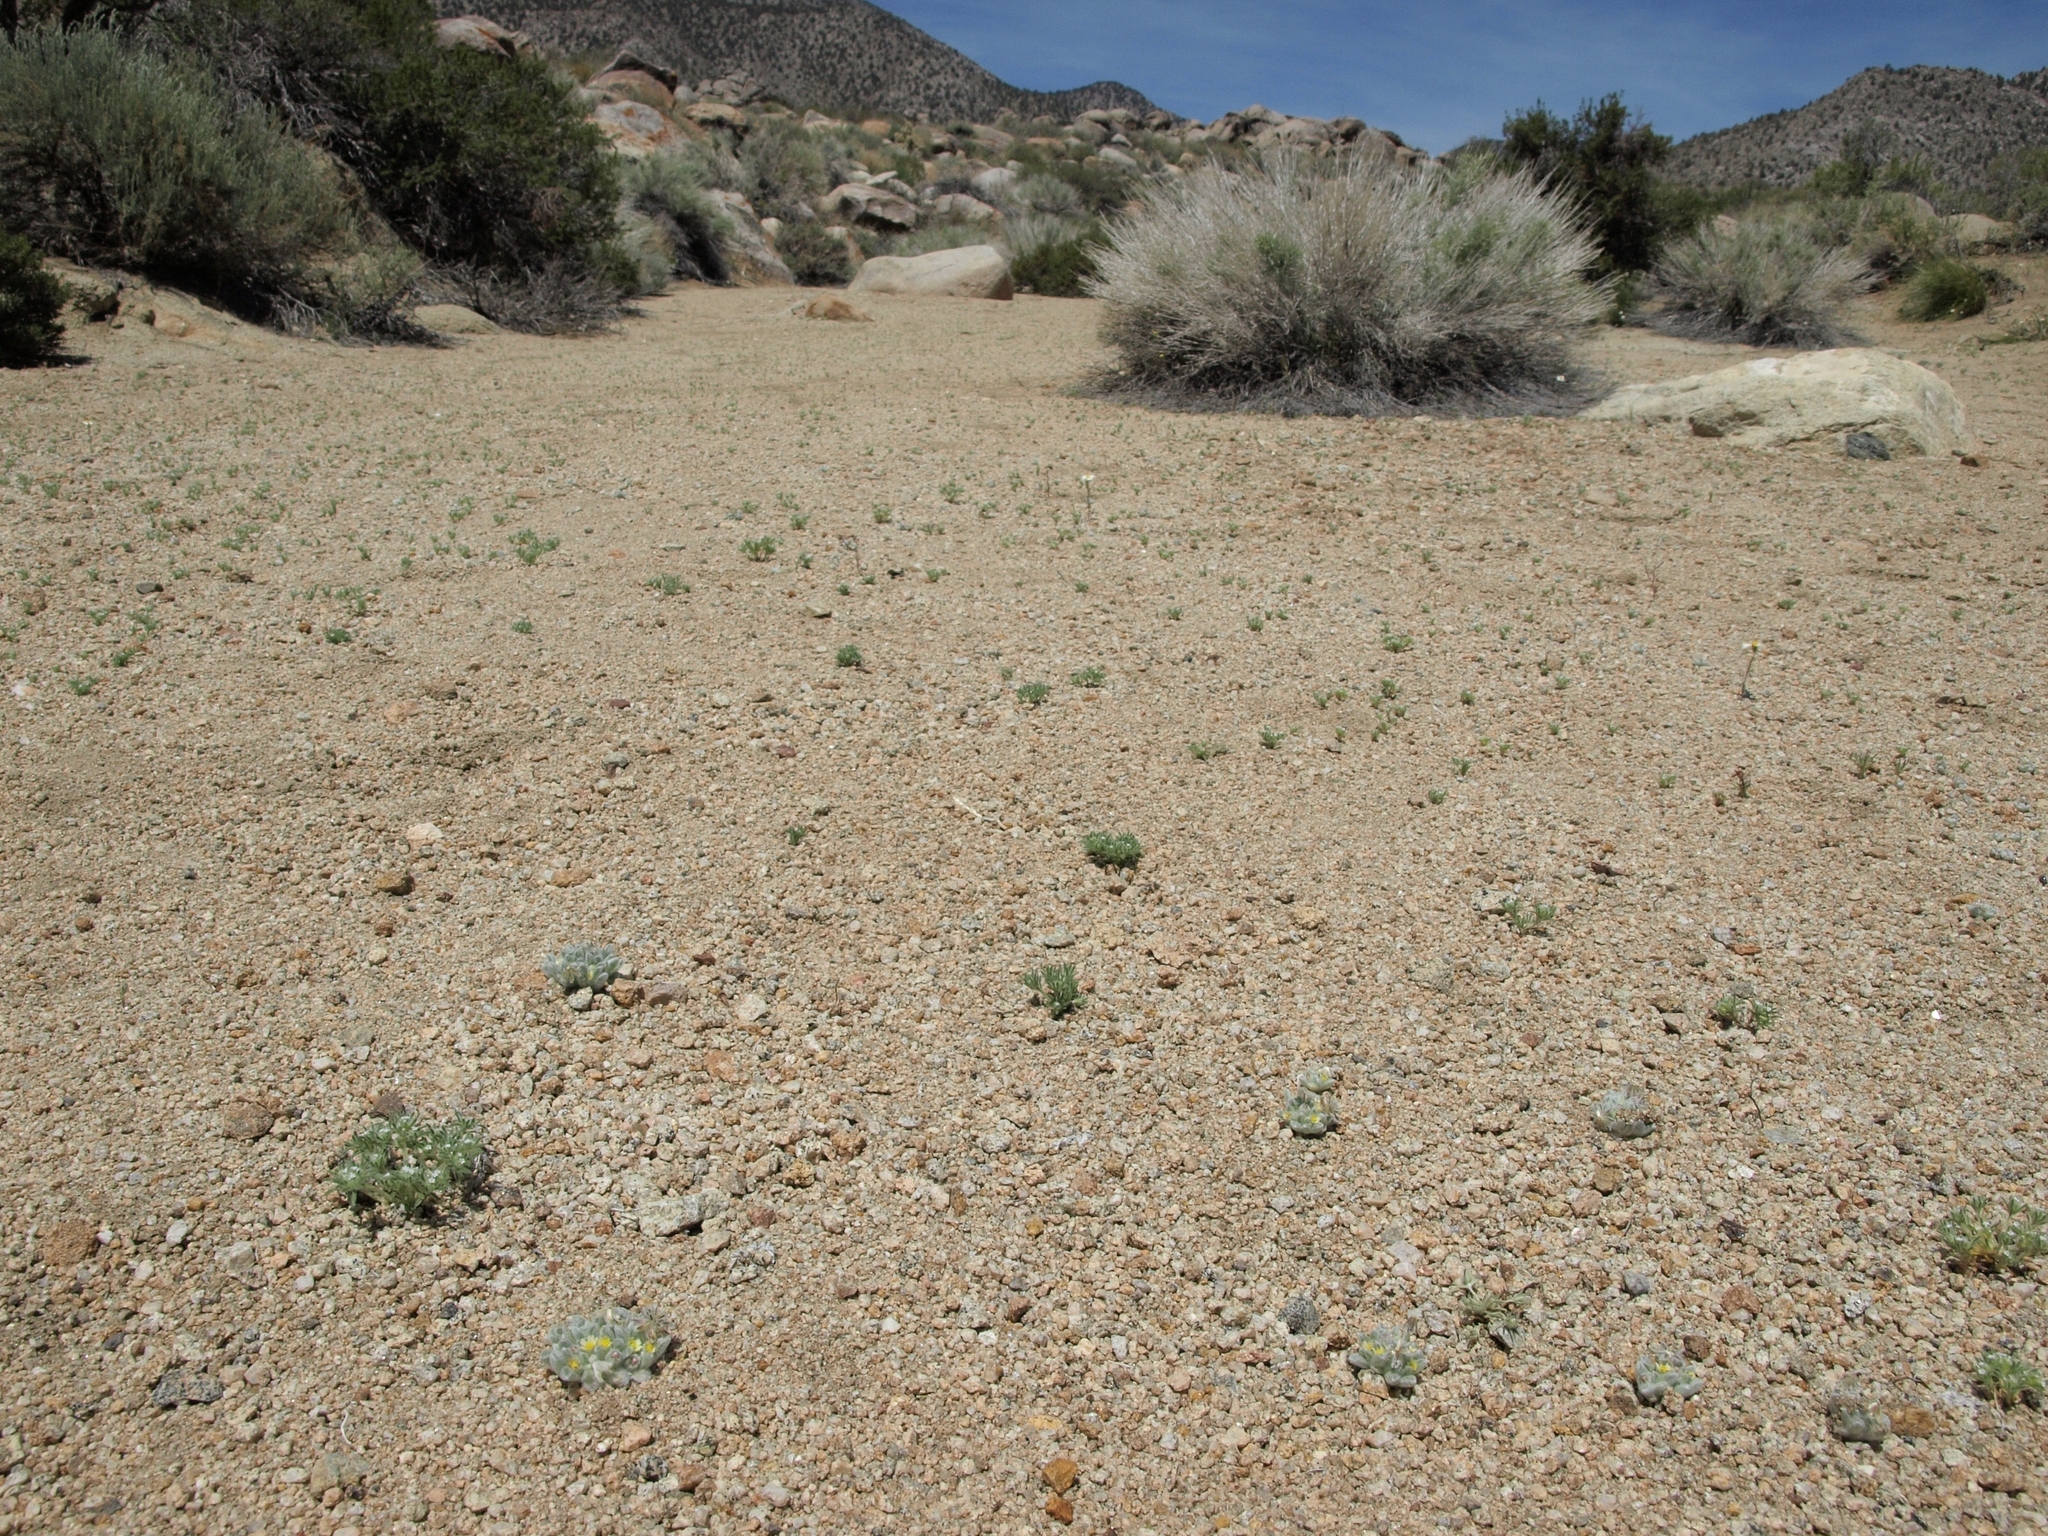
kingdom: Plantae
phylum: Tracheophyta
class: Magnoliopsida
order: Asterales
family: Asteraceae
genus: Eatonella
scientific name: Eatonella nivea
